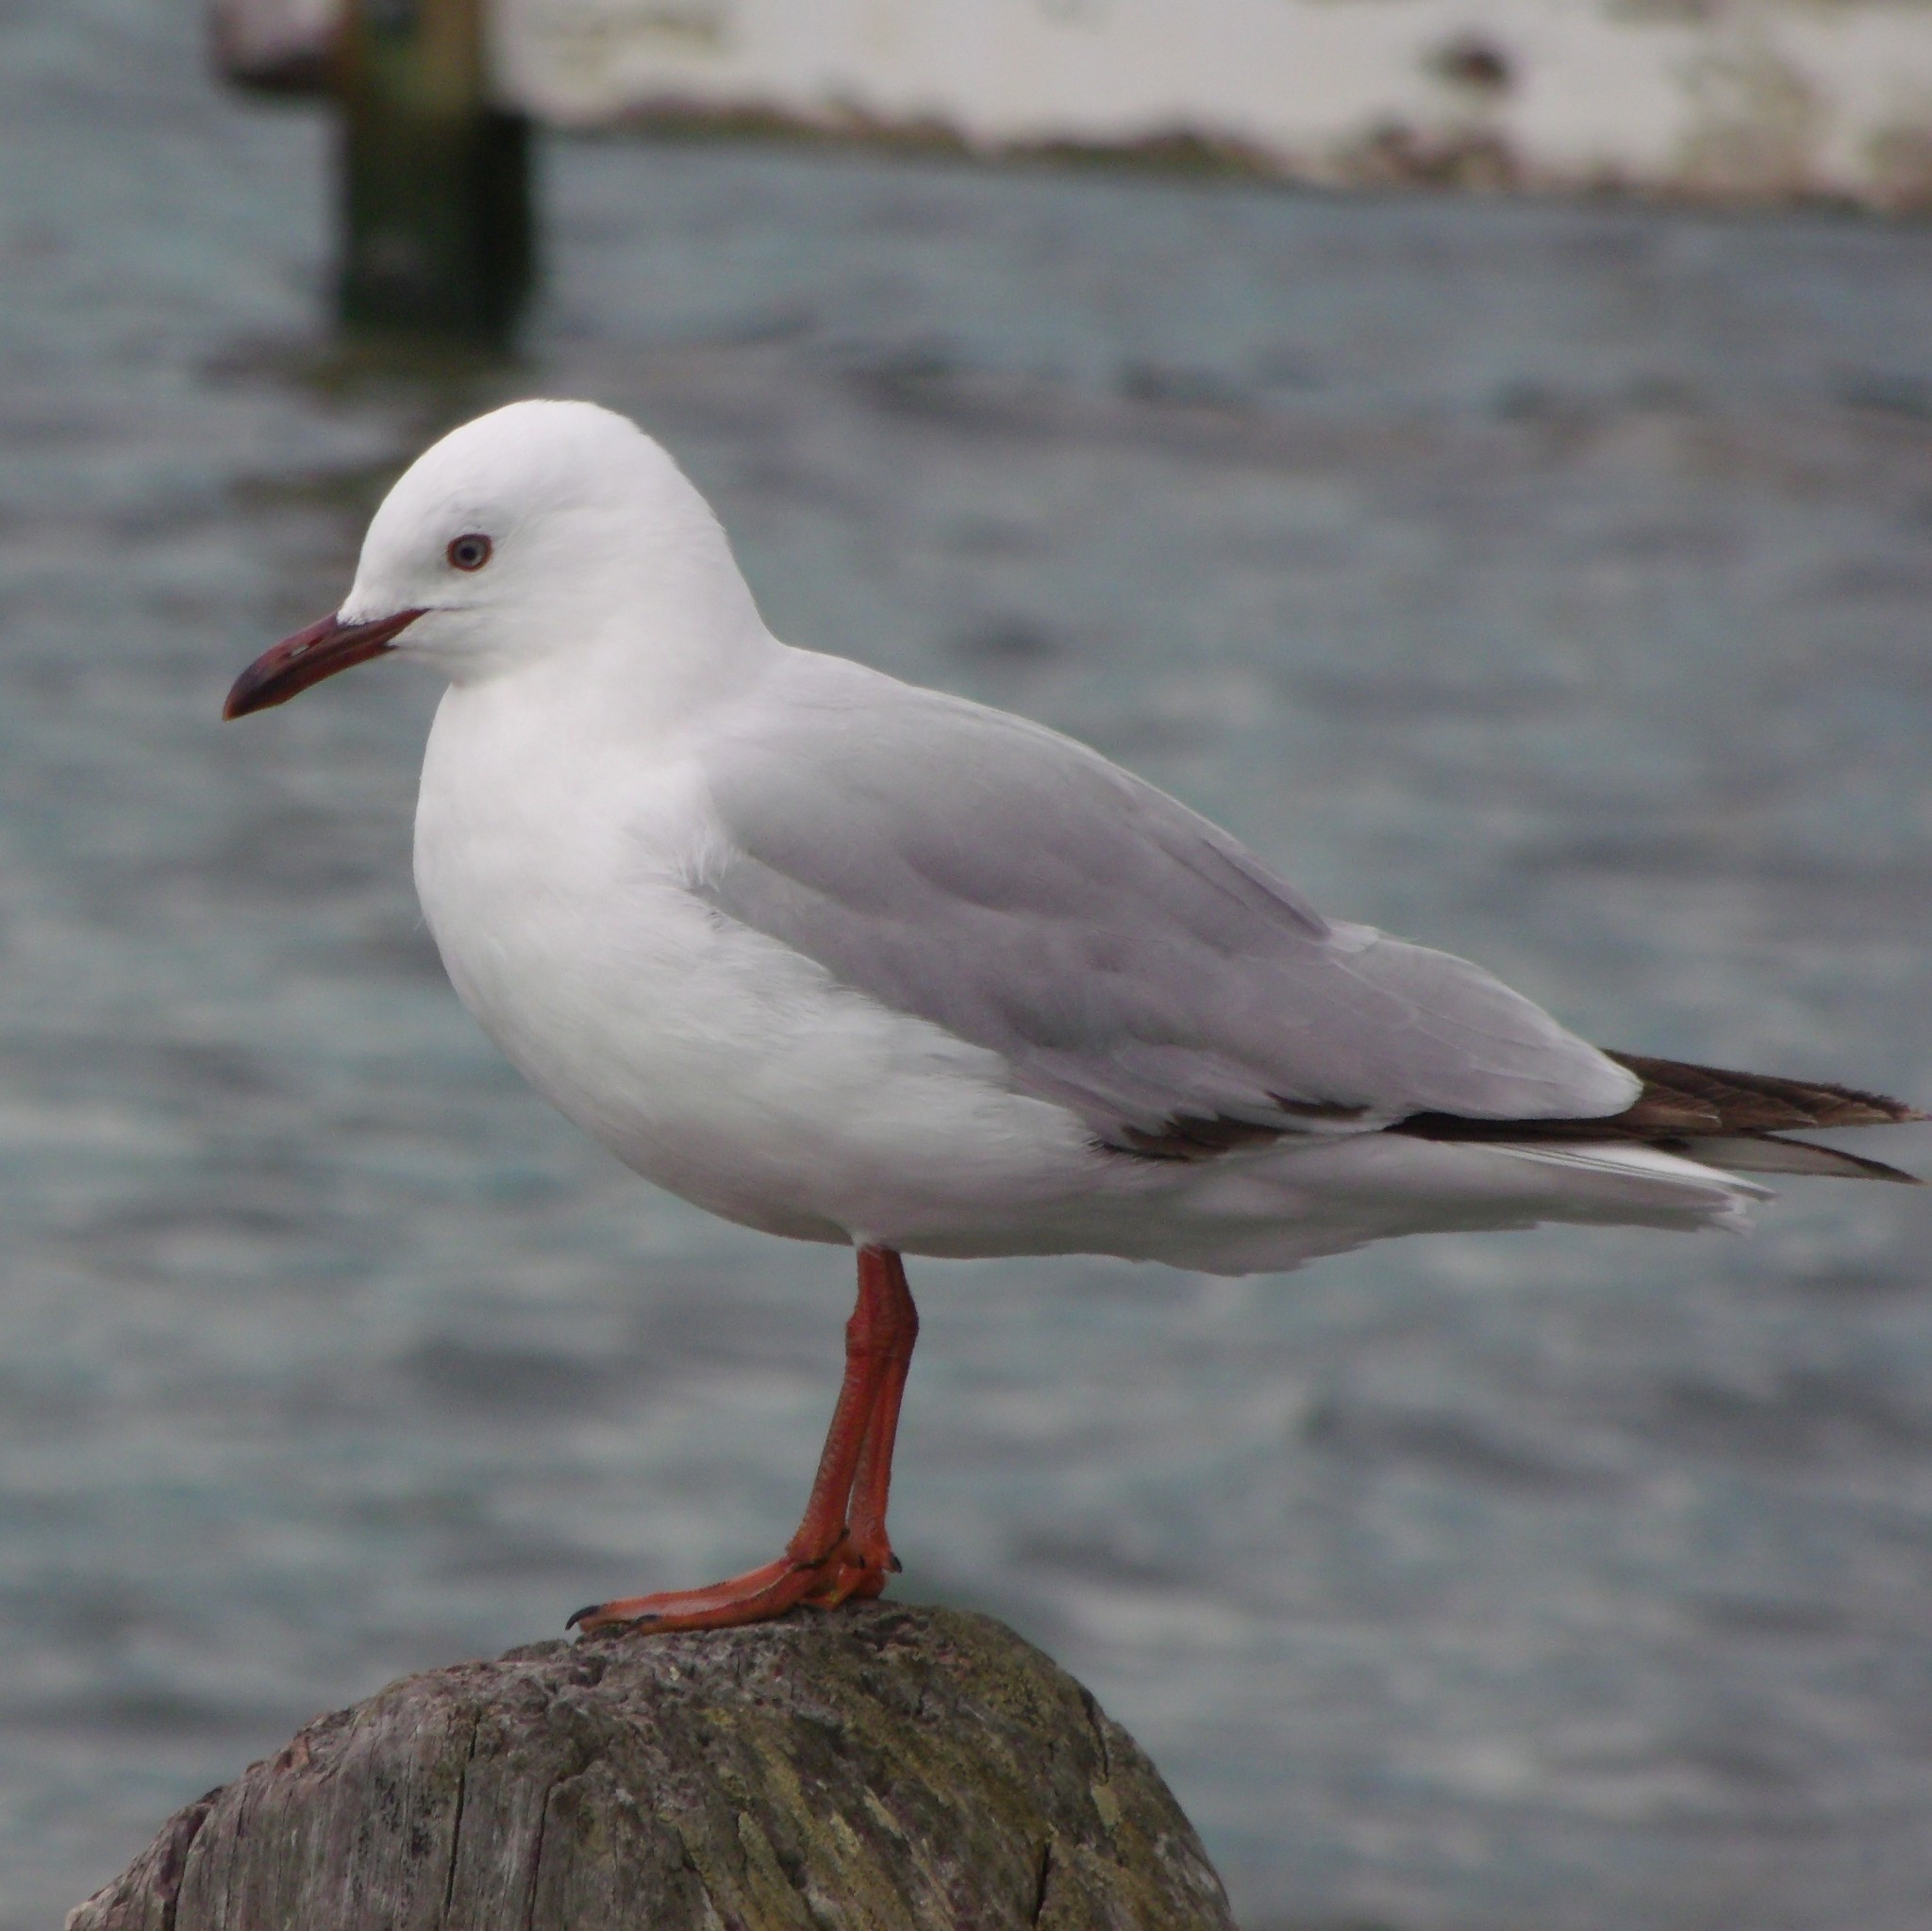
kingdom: Animalia
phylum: Chordata
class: Aves
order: Charadriiformes
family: Laridae
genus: Chroicocephalus
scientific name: Chroicocephalus novaehollandiae
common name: Silver gull
